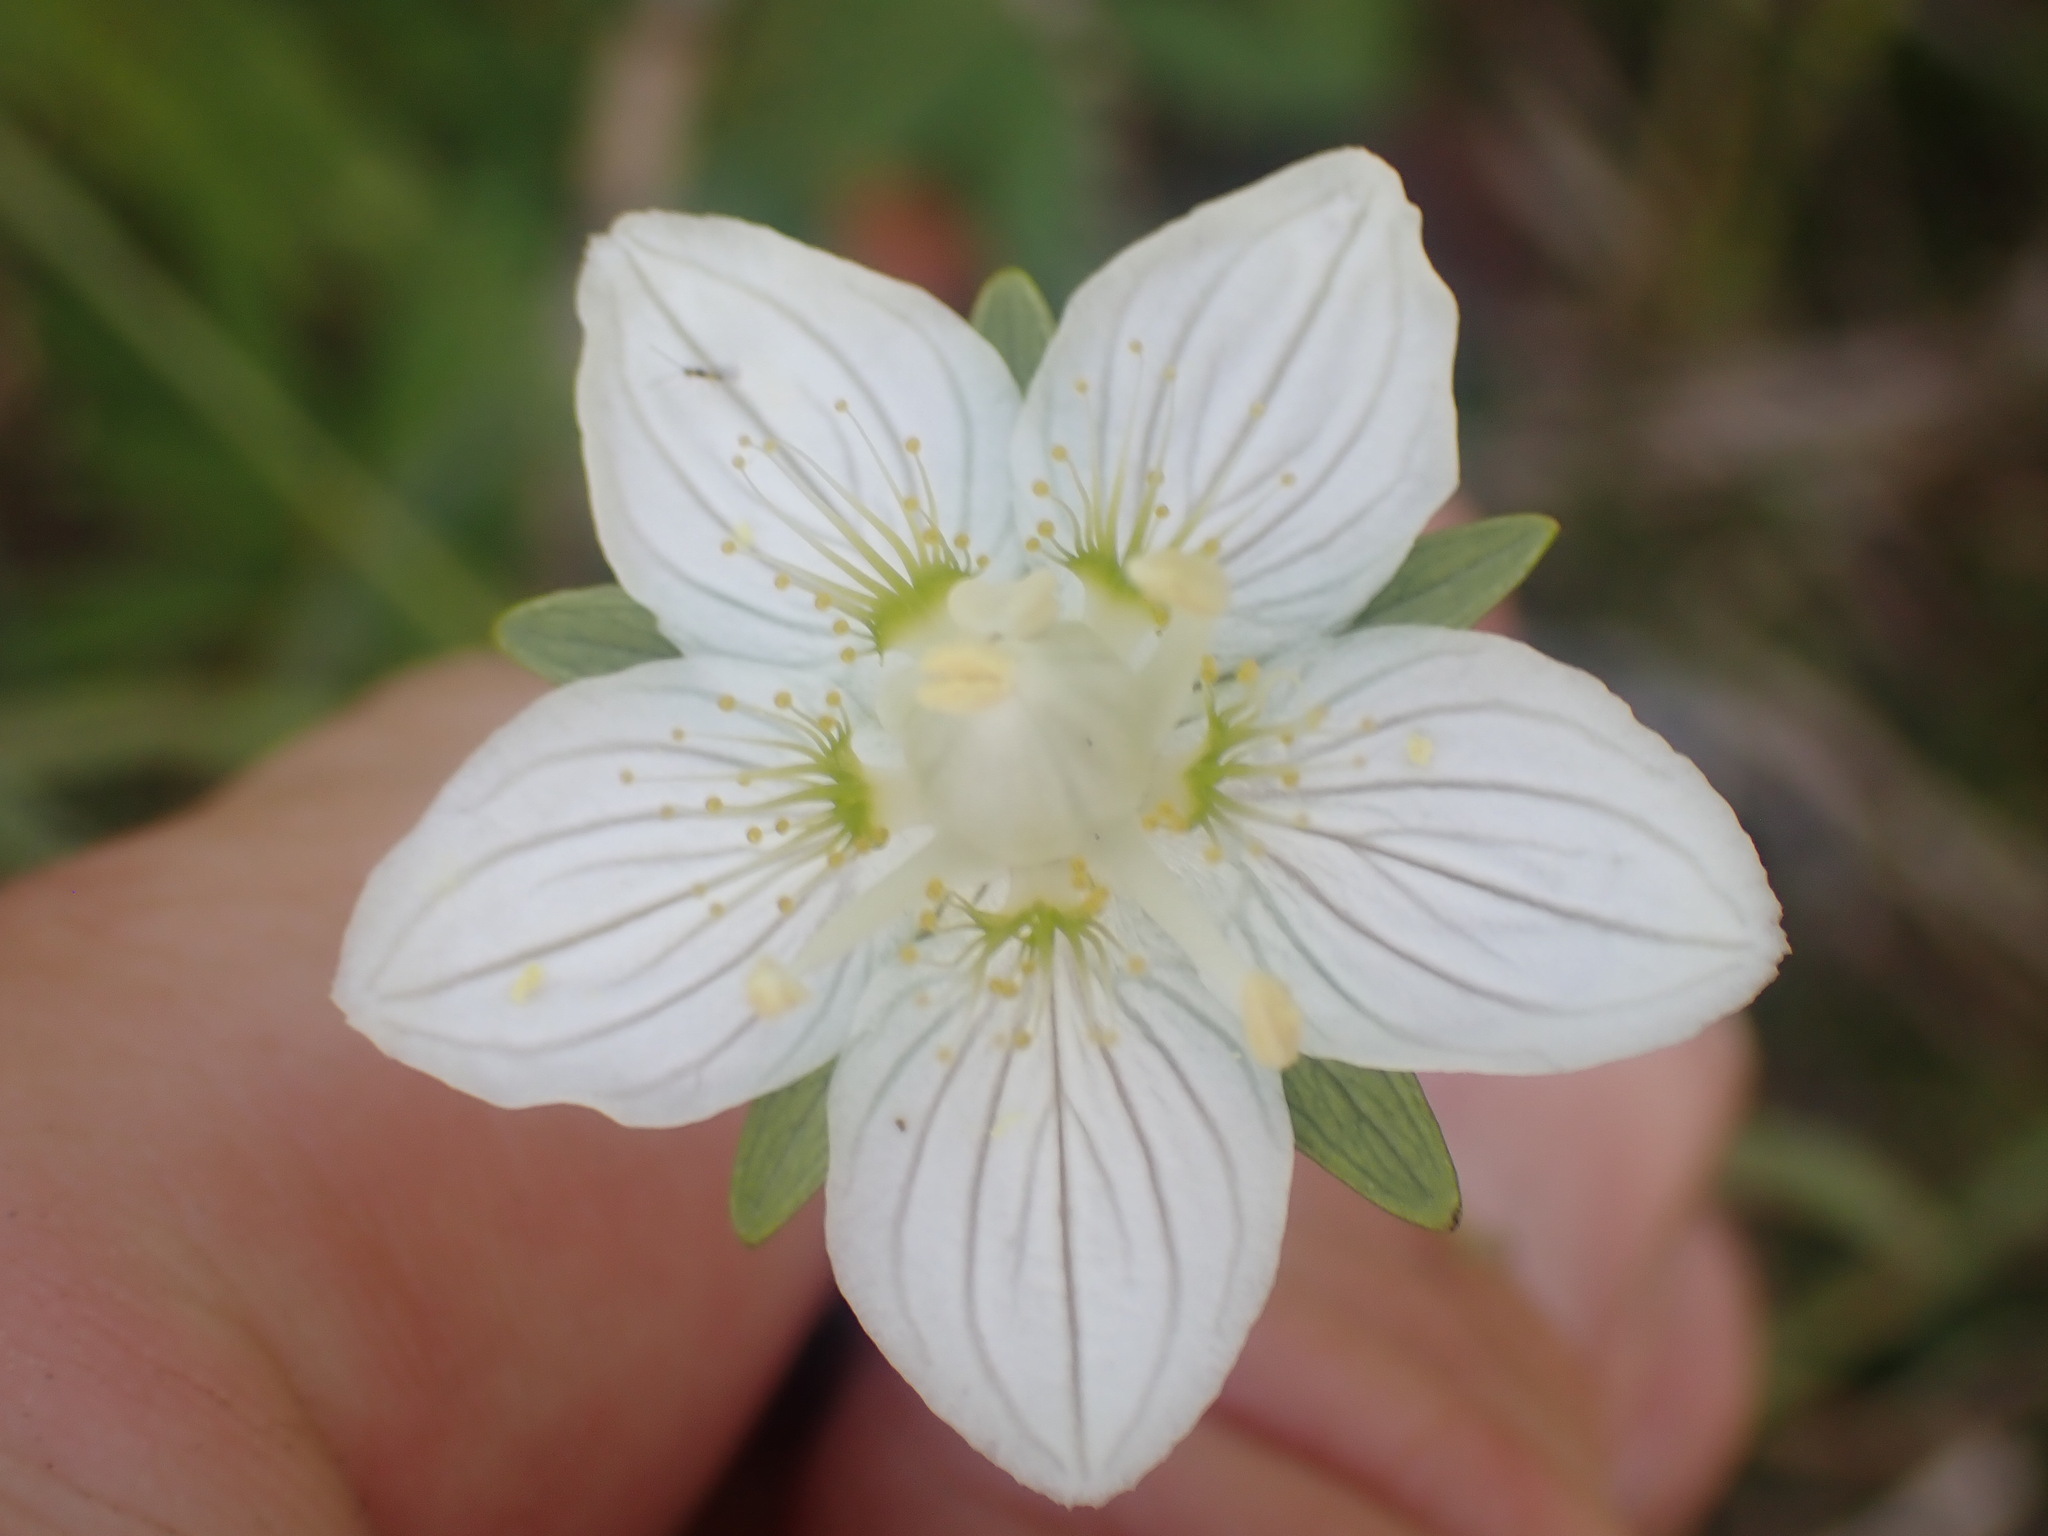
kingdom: Plantae
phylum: Tracheophyta
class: Magnoliopsida
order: Celastrales
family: Parnassiaceae
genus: Parnassia
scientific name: Parnassia palustris
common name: Grass-of-parnassus
